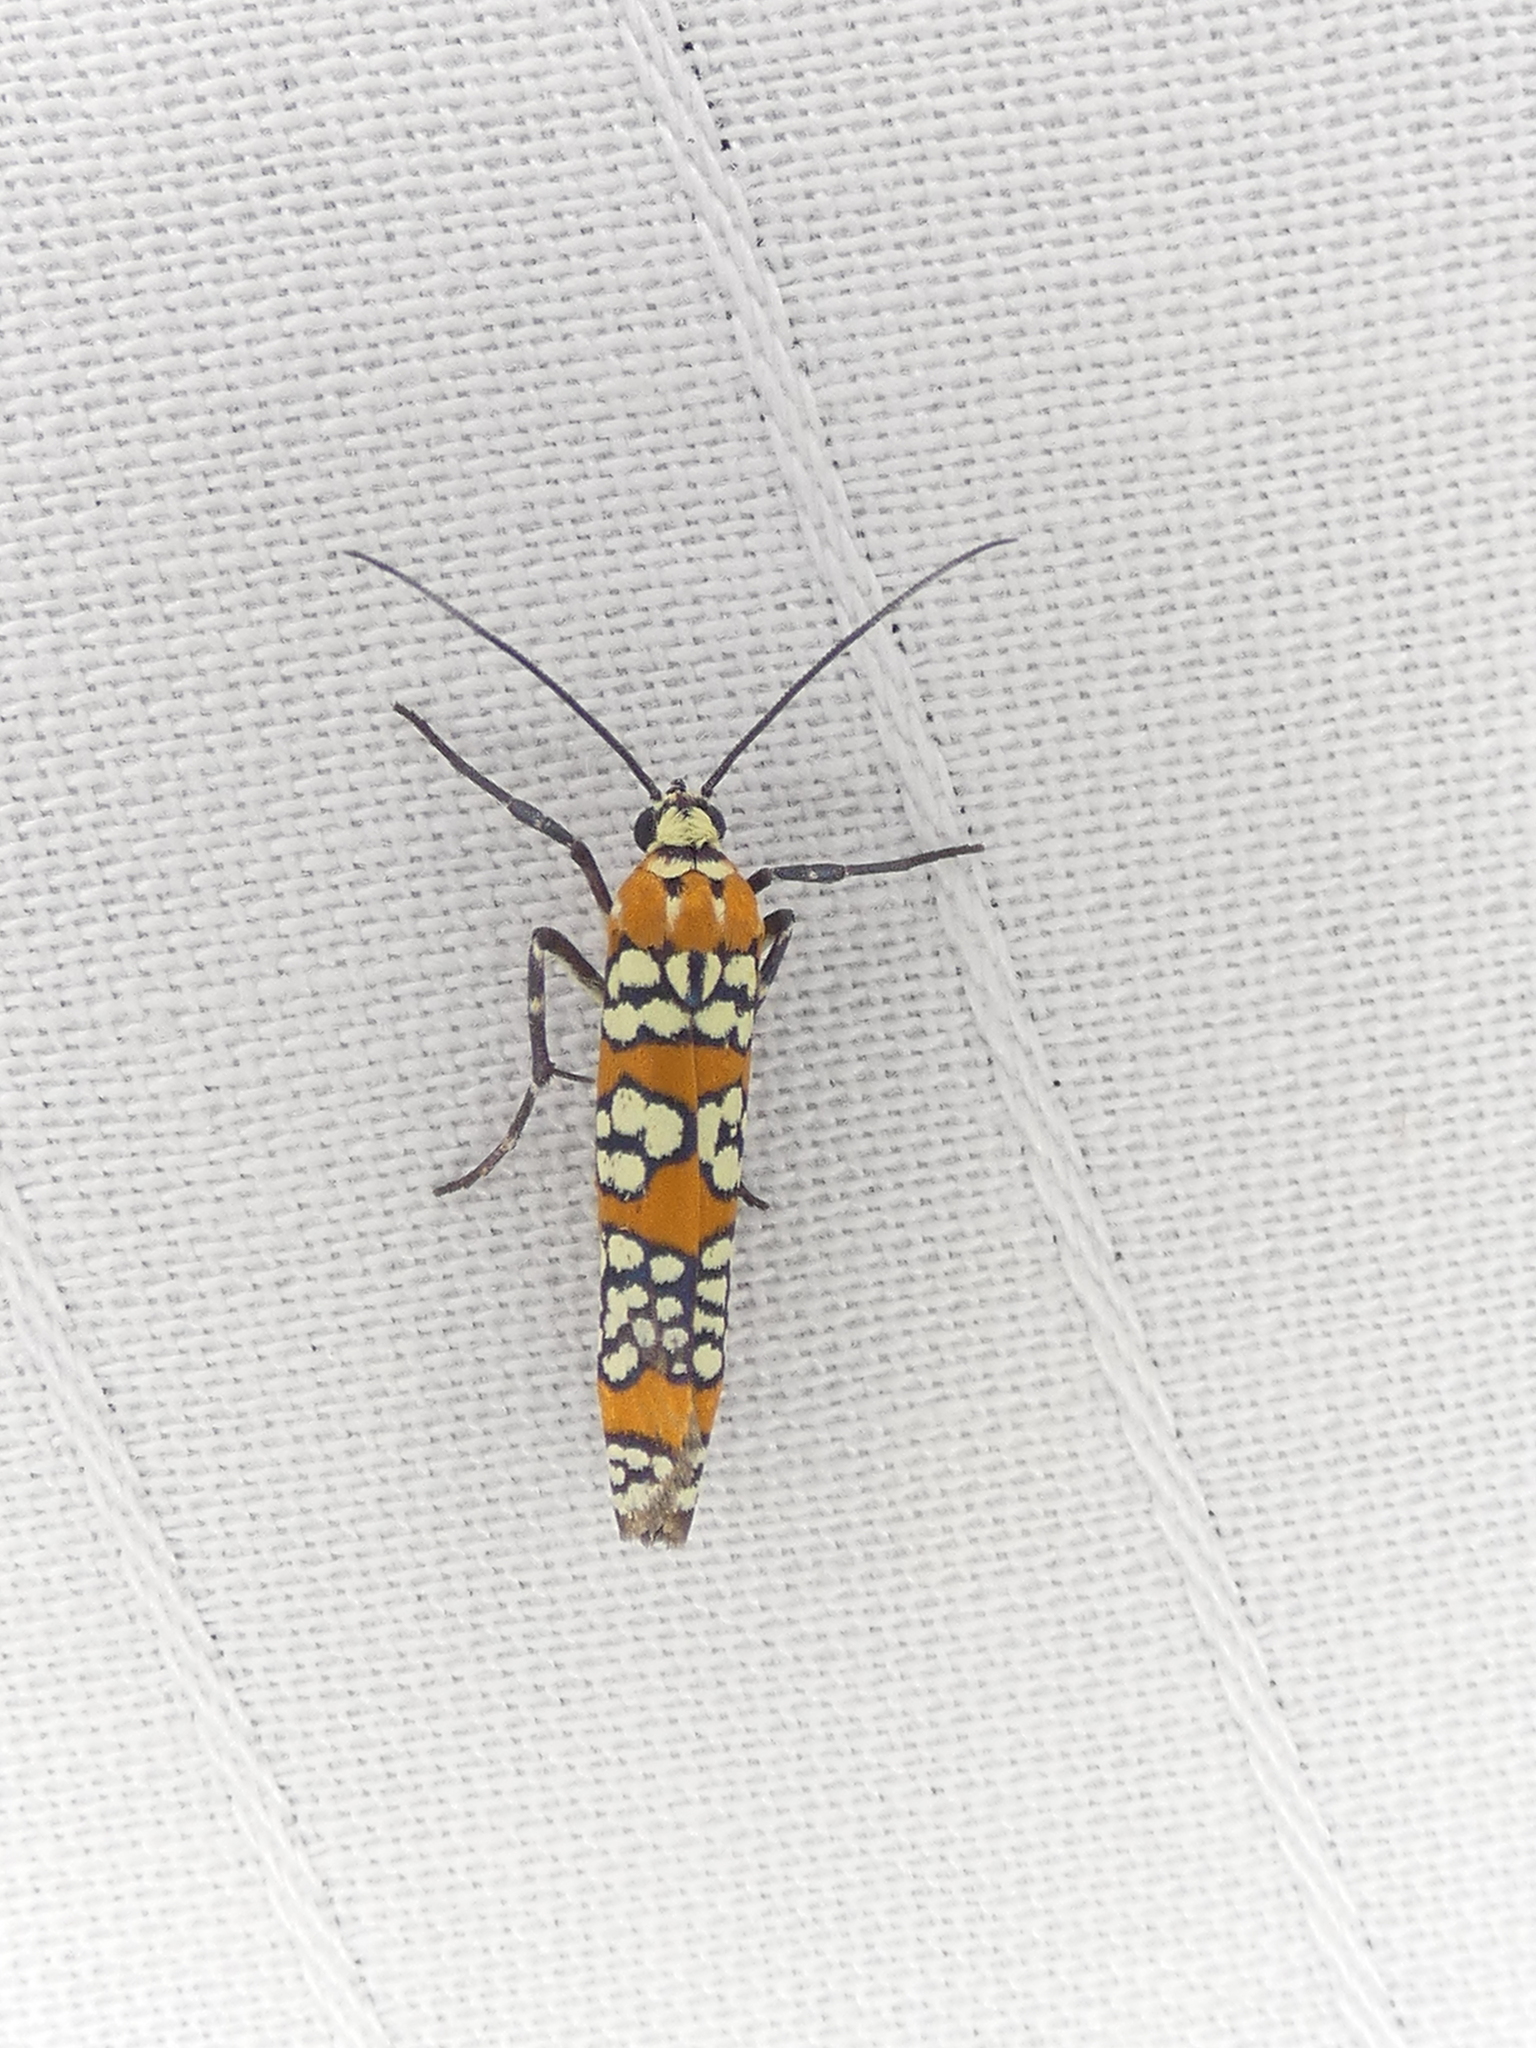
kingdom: Animalia
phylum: Arthropoda
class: Insecta
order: Lepidoptera
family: Attevidae
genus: Atteva
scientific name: Atteva punctella
